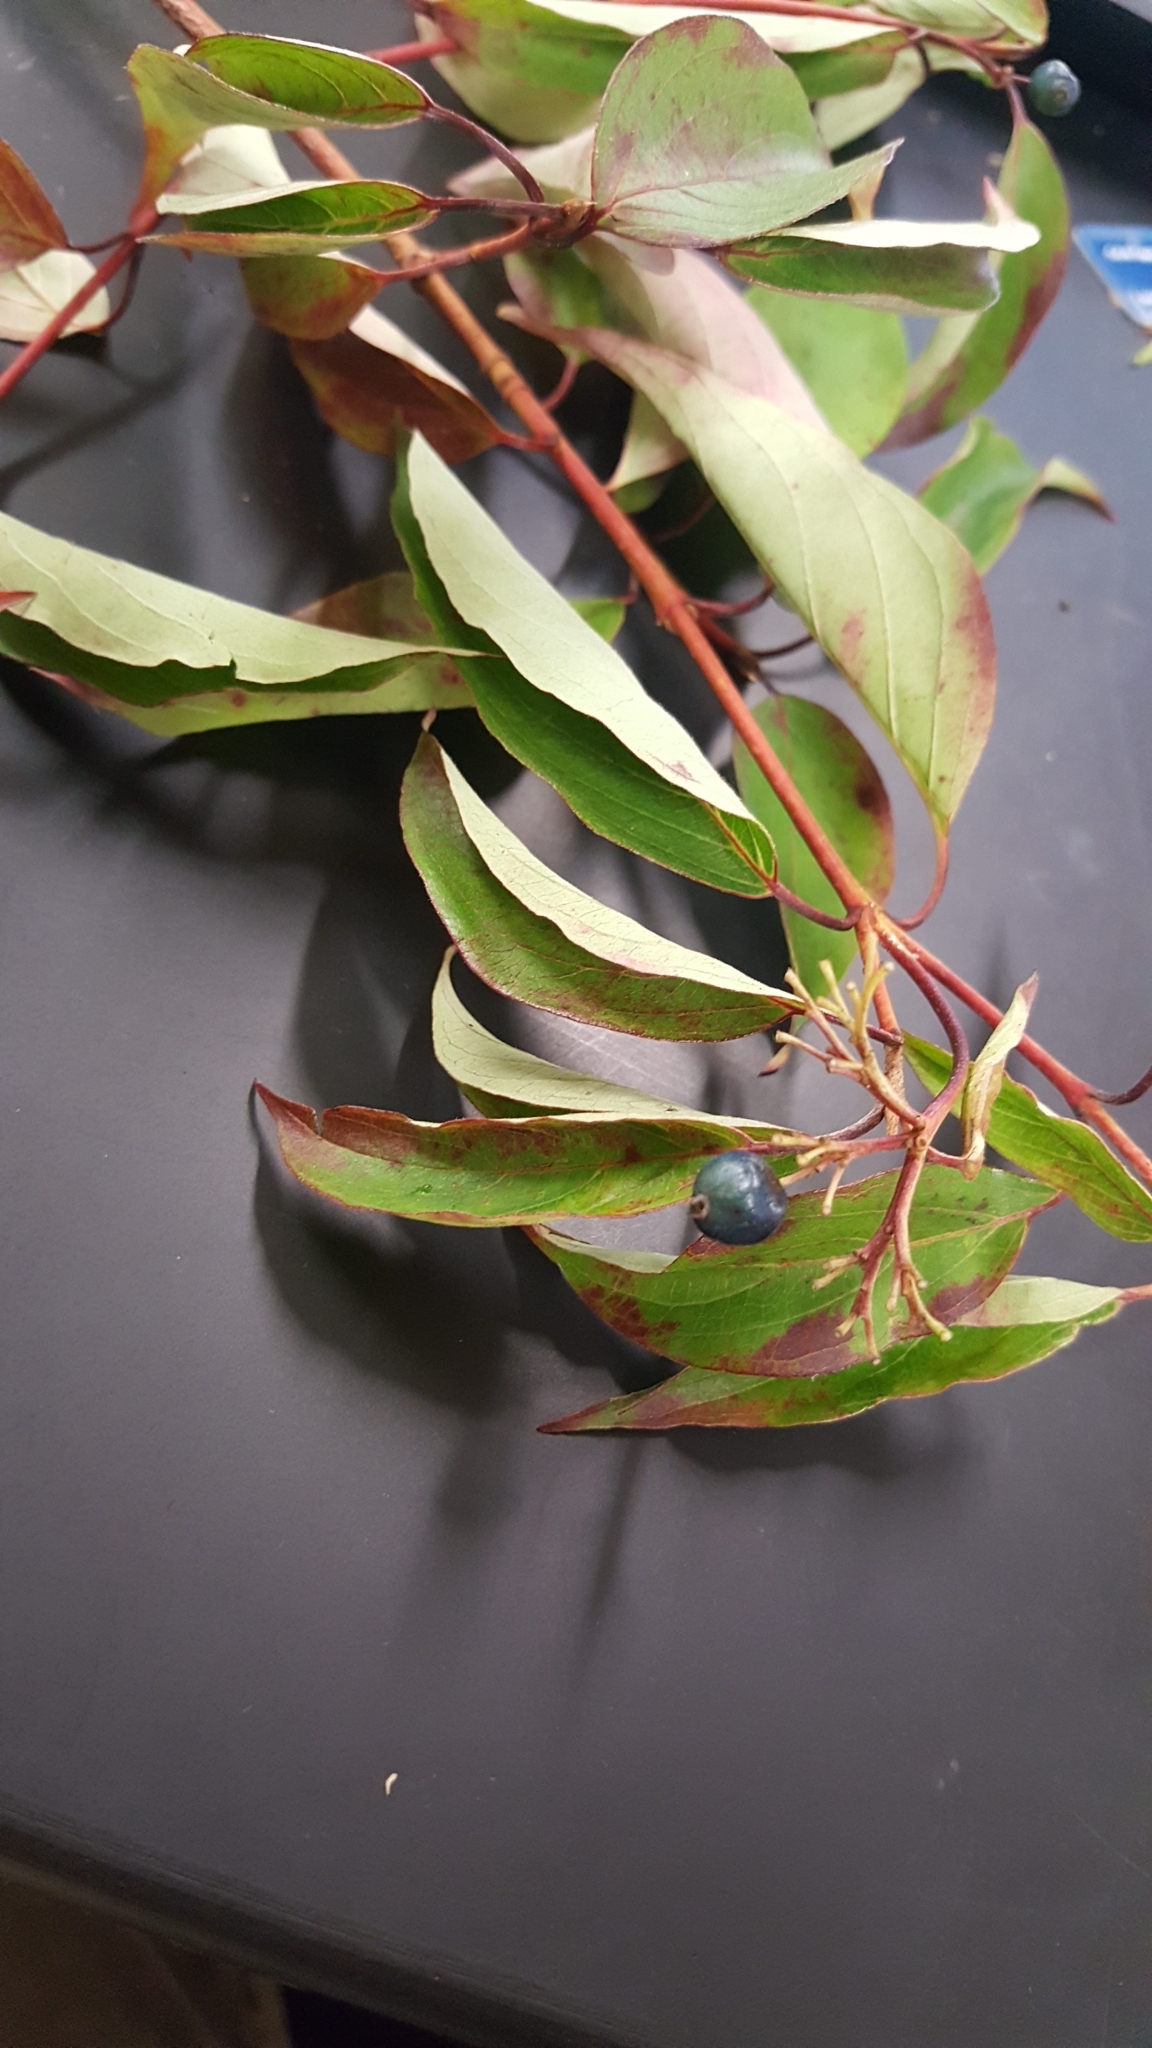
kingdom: Plantae
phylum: Tracheophyta
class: Magnoliopsida
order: Cornales
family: Cornaceae
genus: Cornus
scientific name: Cornus amomum
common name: Silky dogwood
